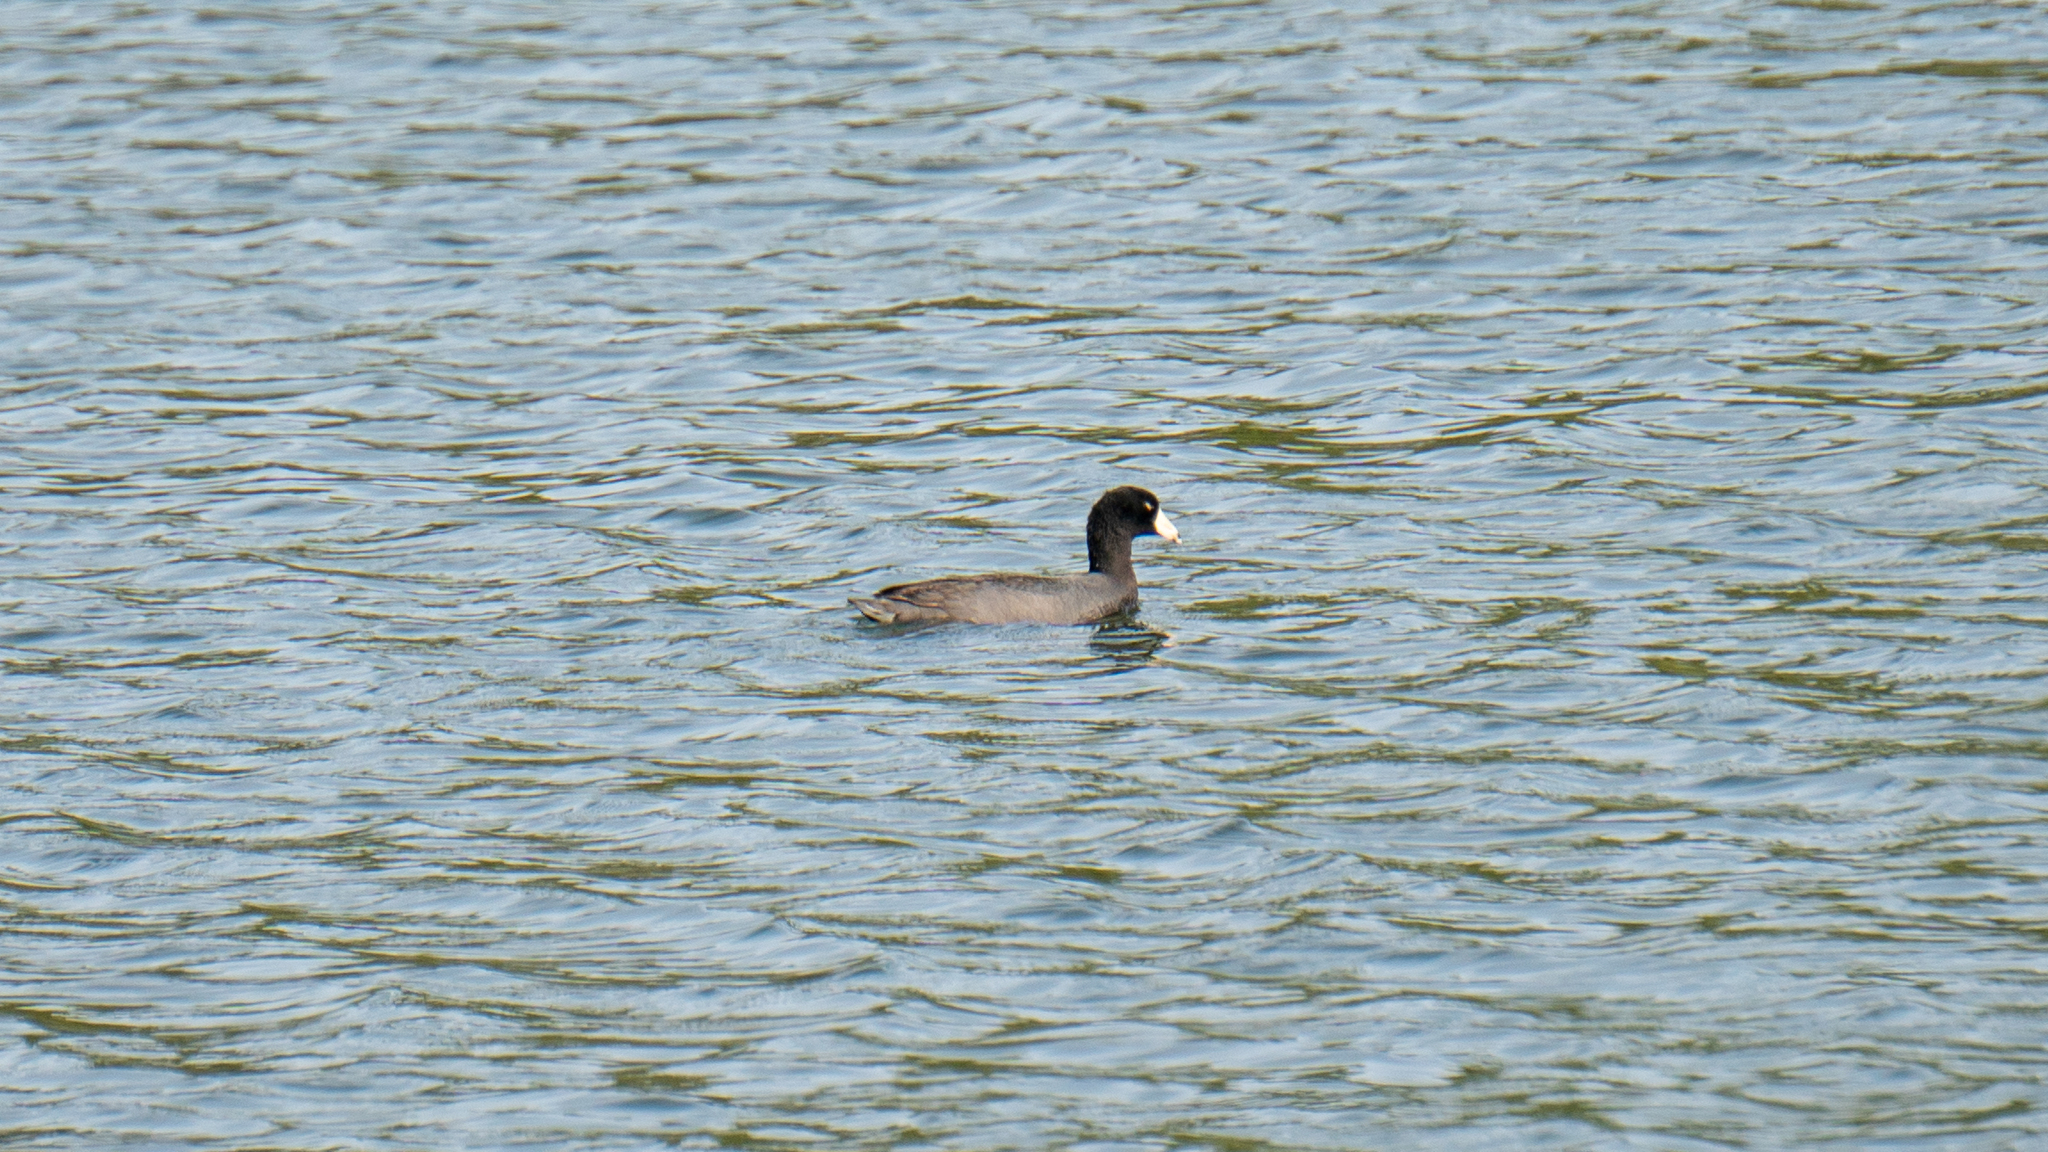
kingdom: Animalia
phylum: Chordata
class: Aves
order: Gruiformes
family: Rallidae
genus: Fulica
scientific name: Fulica americana
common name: American coot
